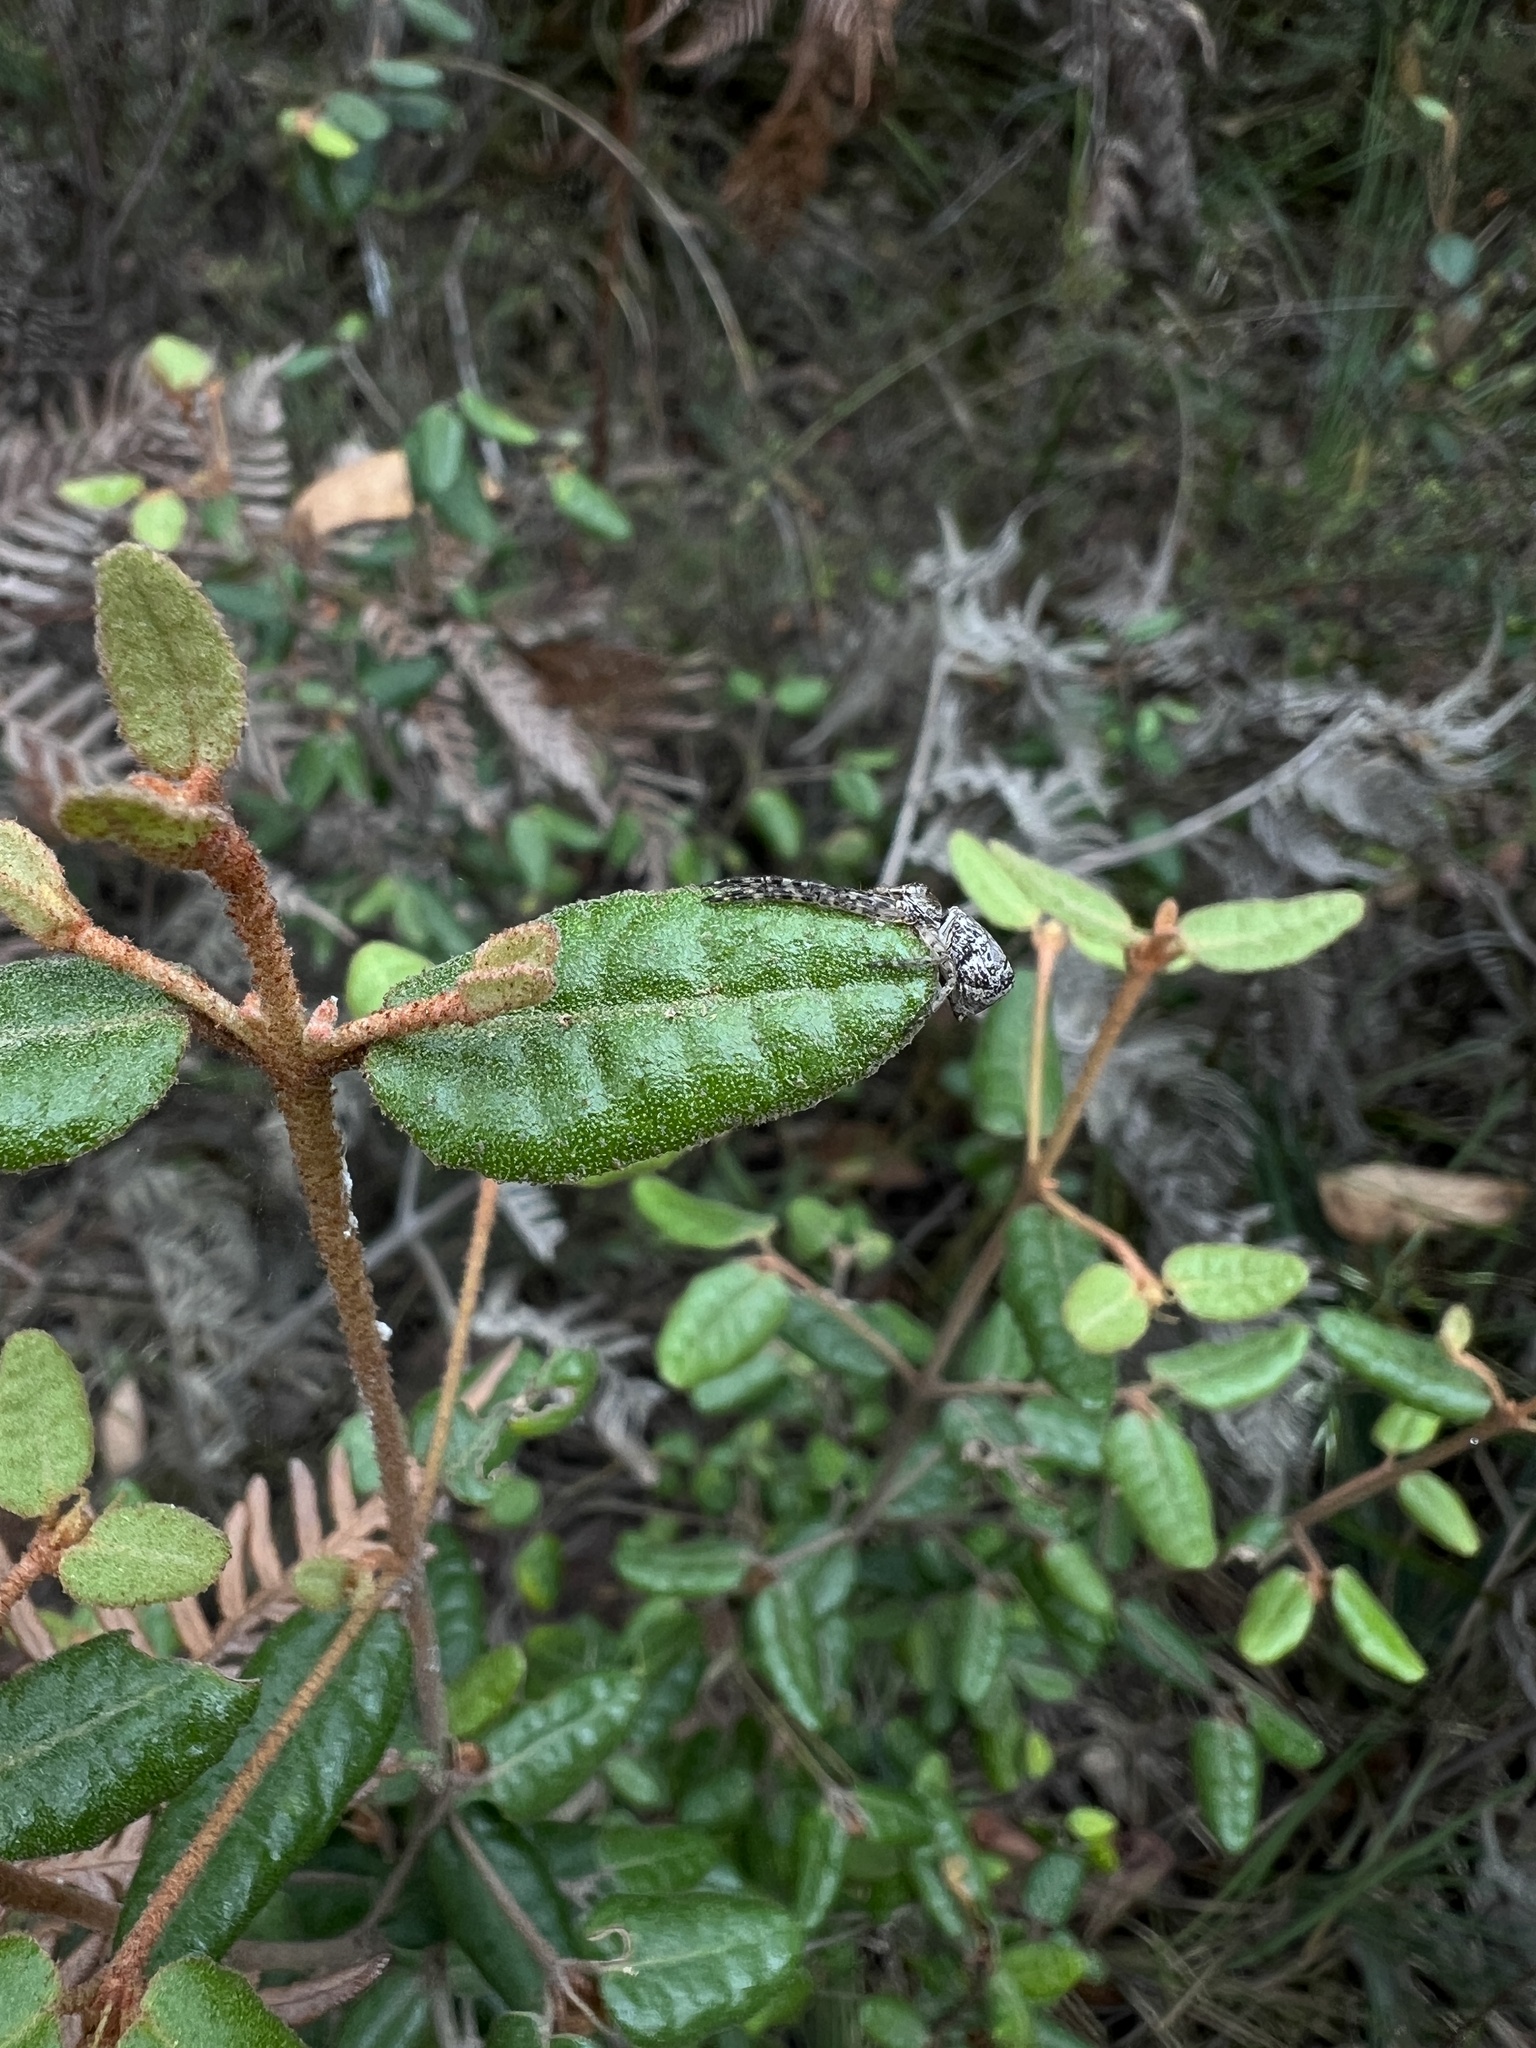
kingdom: Plantae
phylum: Tracheophyta
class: Magnoliopsida
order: Sapindales
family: Rutaceae
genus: Correa
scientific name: Correa reflexa
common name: Common correa
